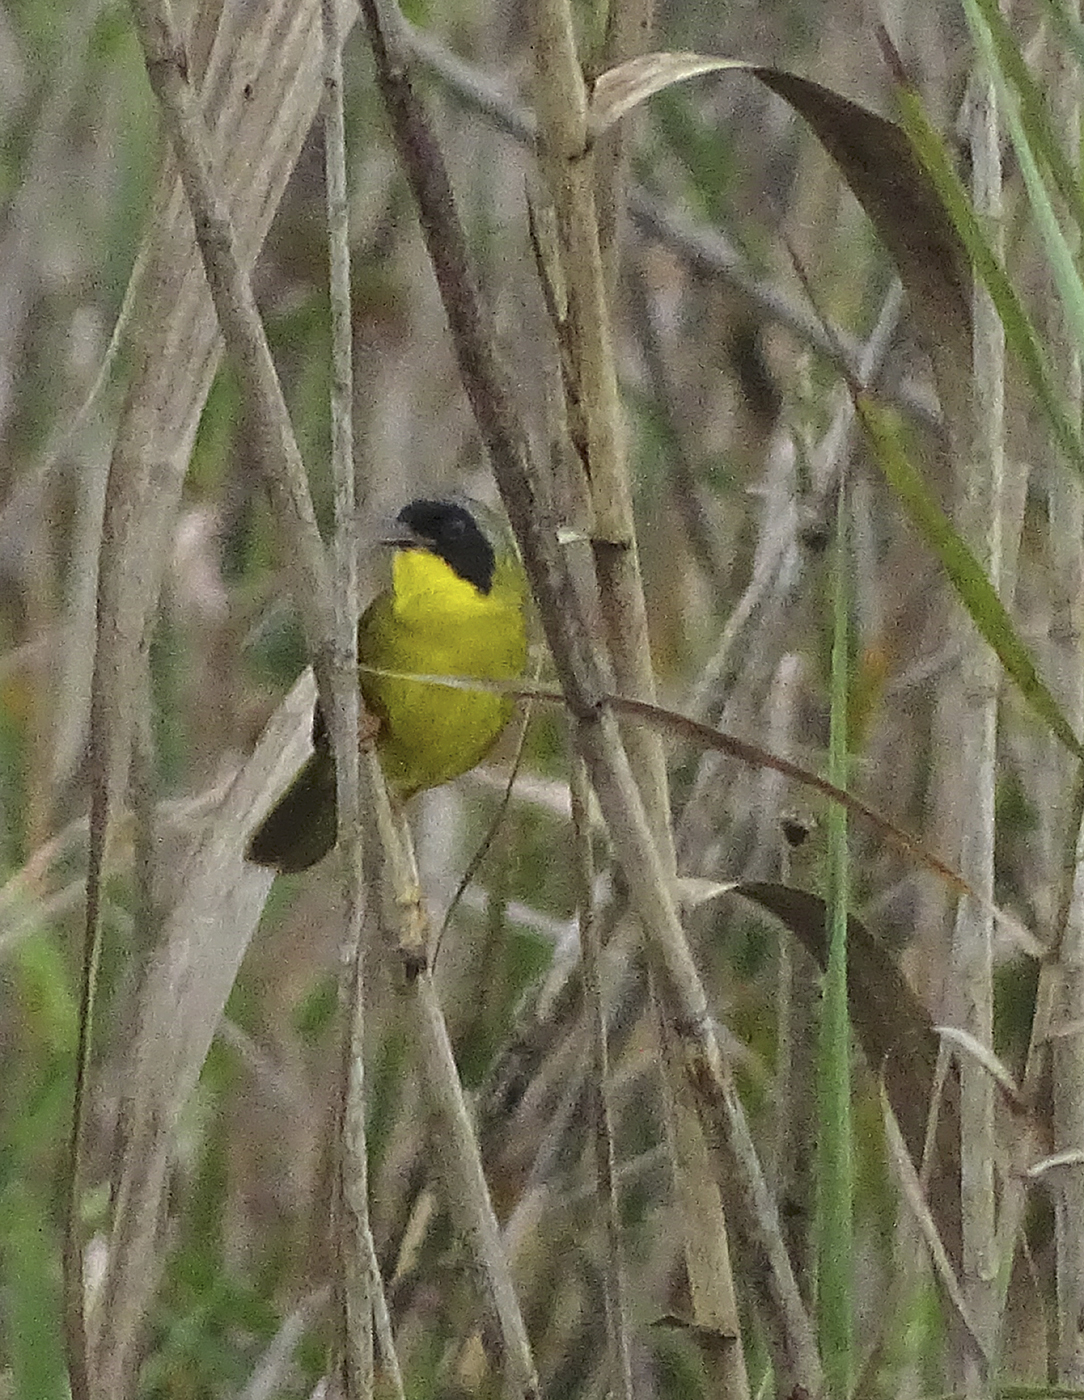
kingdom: Animalia
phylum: Chordata
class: Aves
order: Passeriformes
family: Parulidae
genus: Geothlypis
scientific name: Geothlypis semiflava
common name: Olive-crowned yellowthroat
